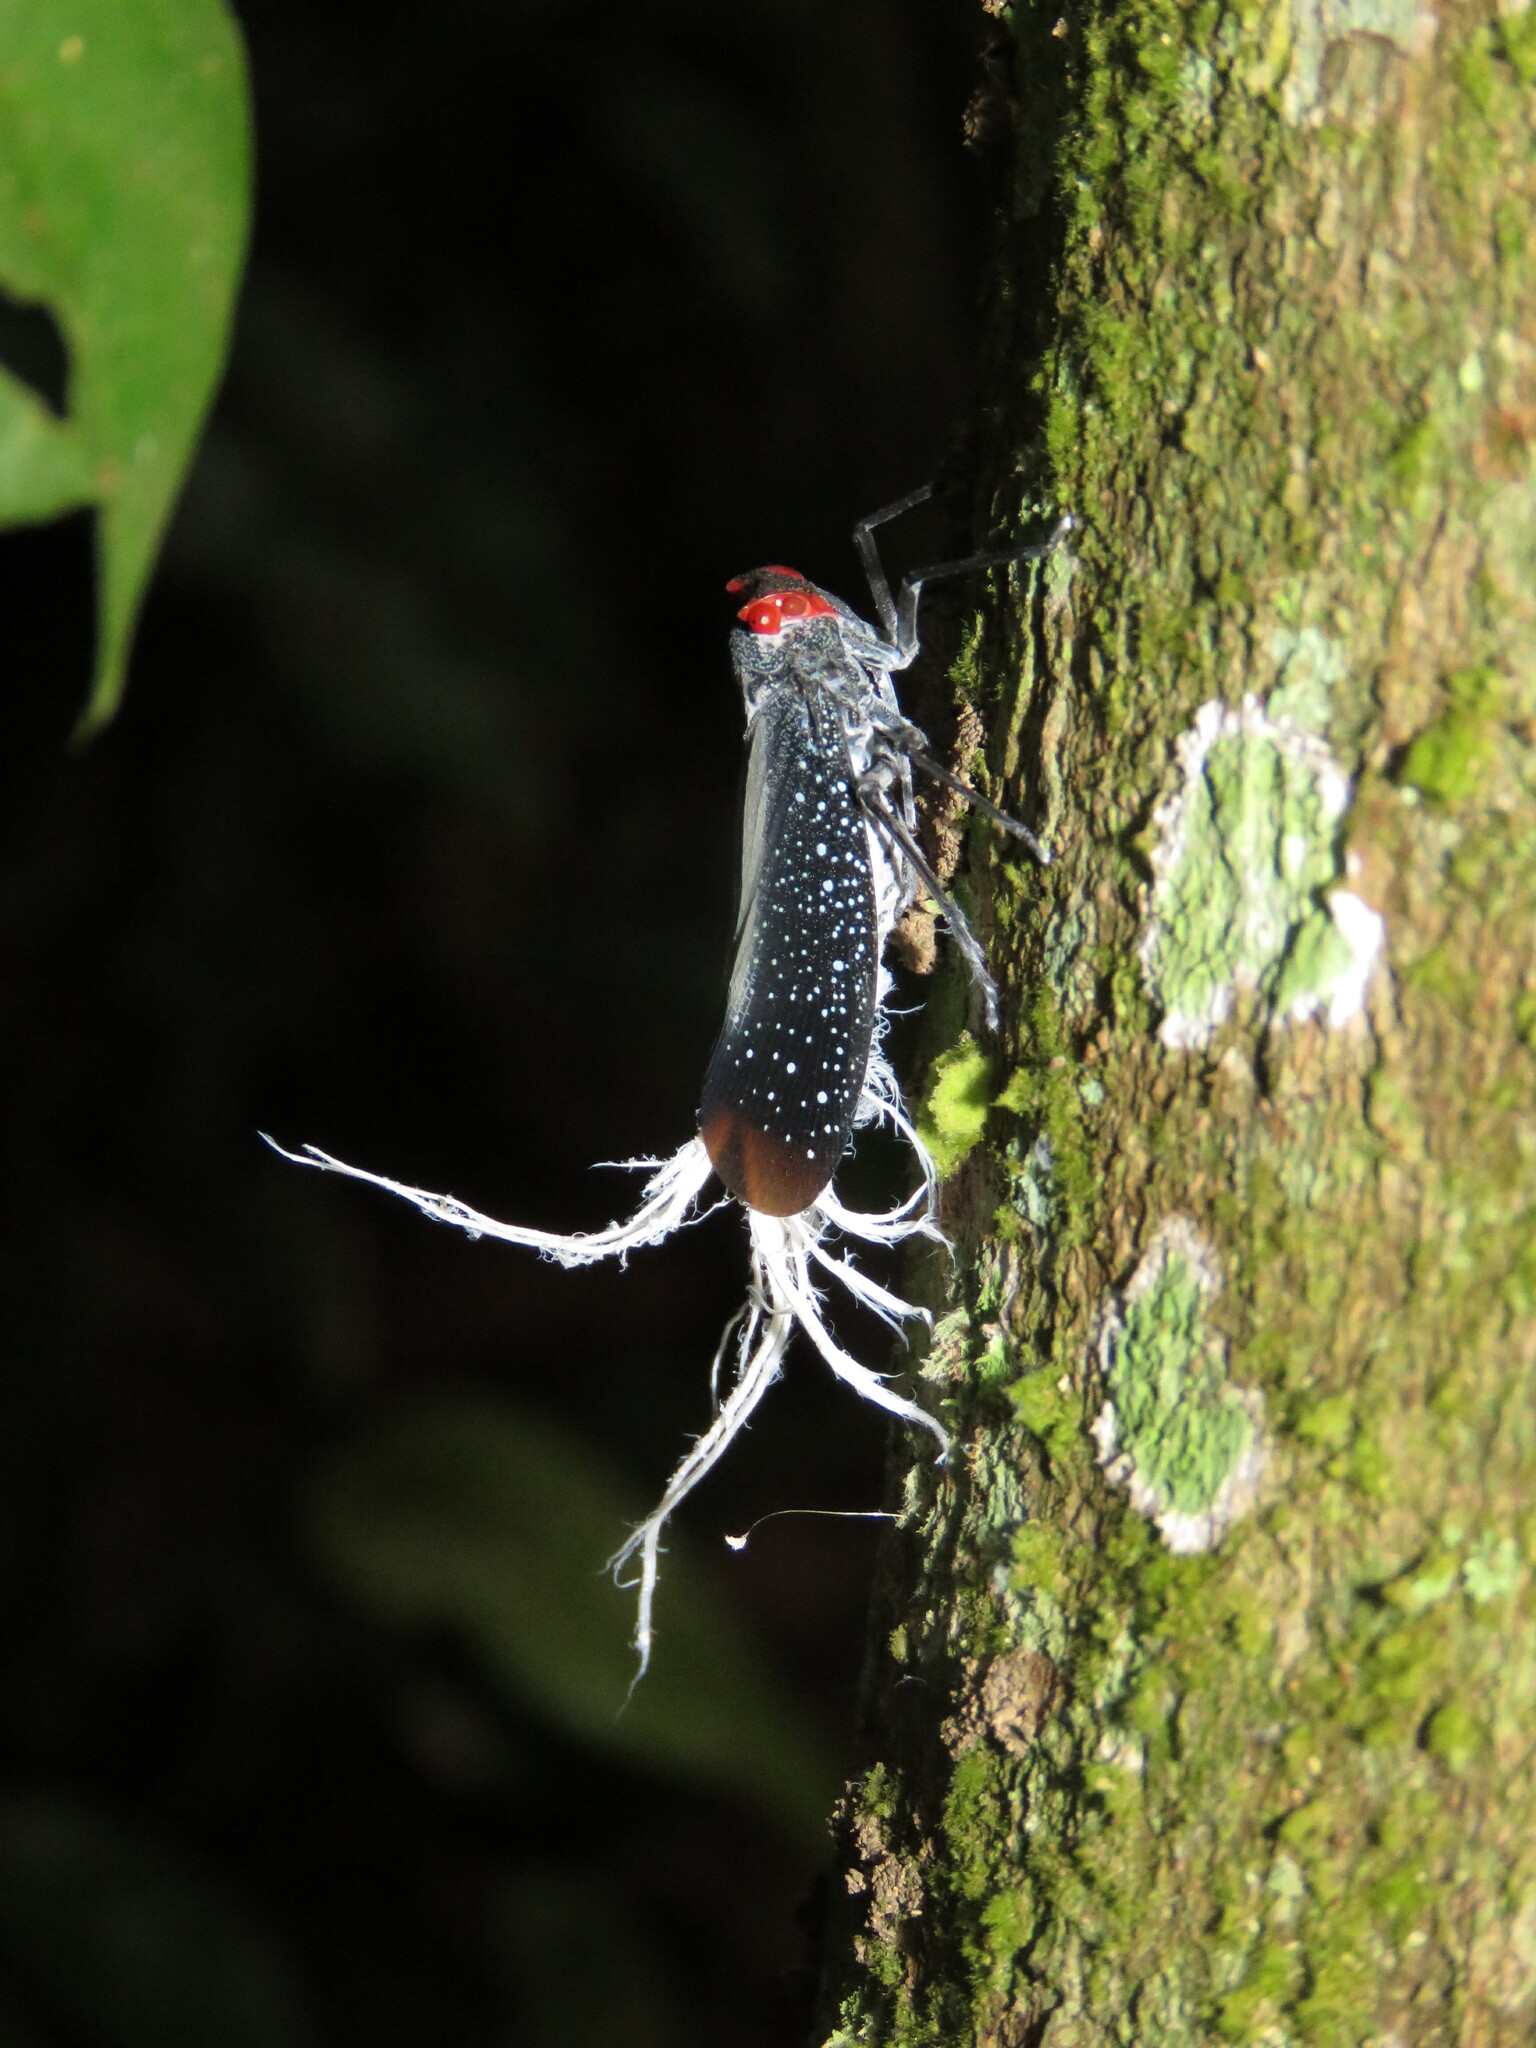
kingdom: Animalia
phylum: Arthropoda
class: Insecta
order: Hemiptera
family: Fulgoridae
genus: Lystra
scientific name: Lystra lanata
